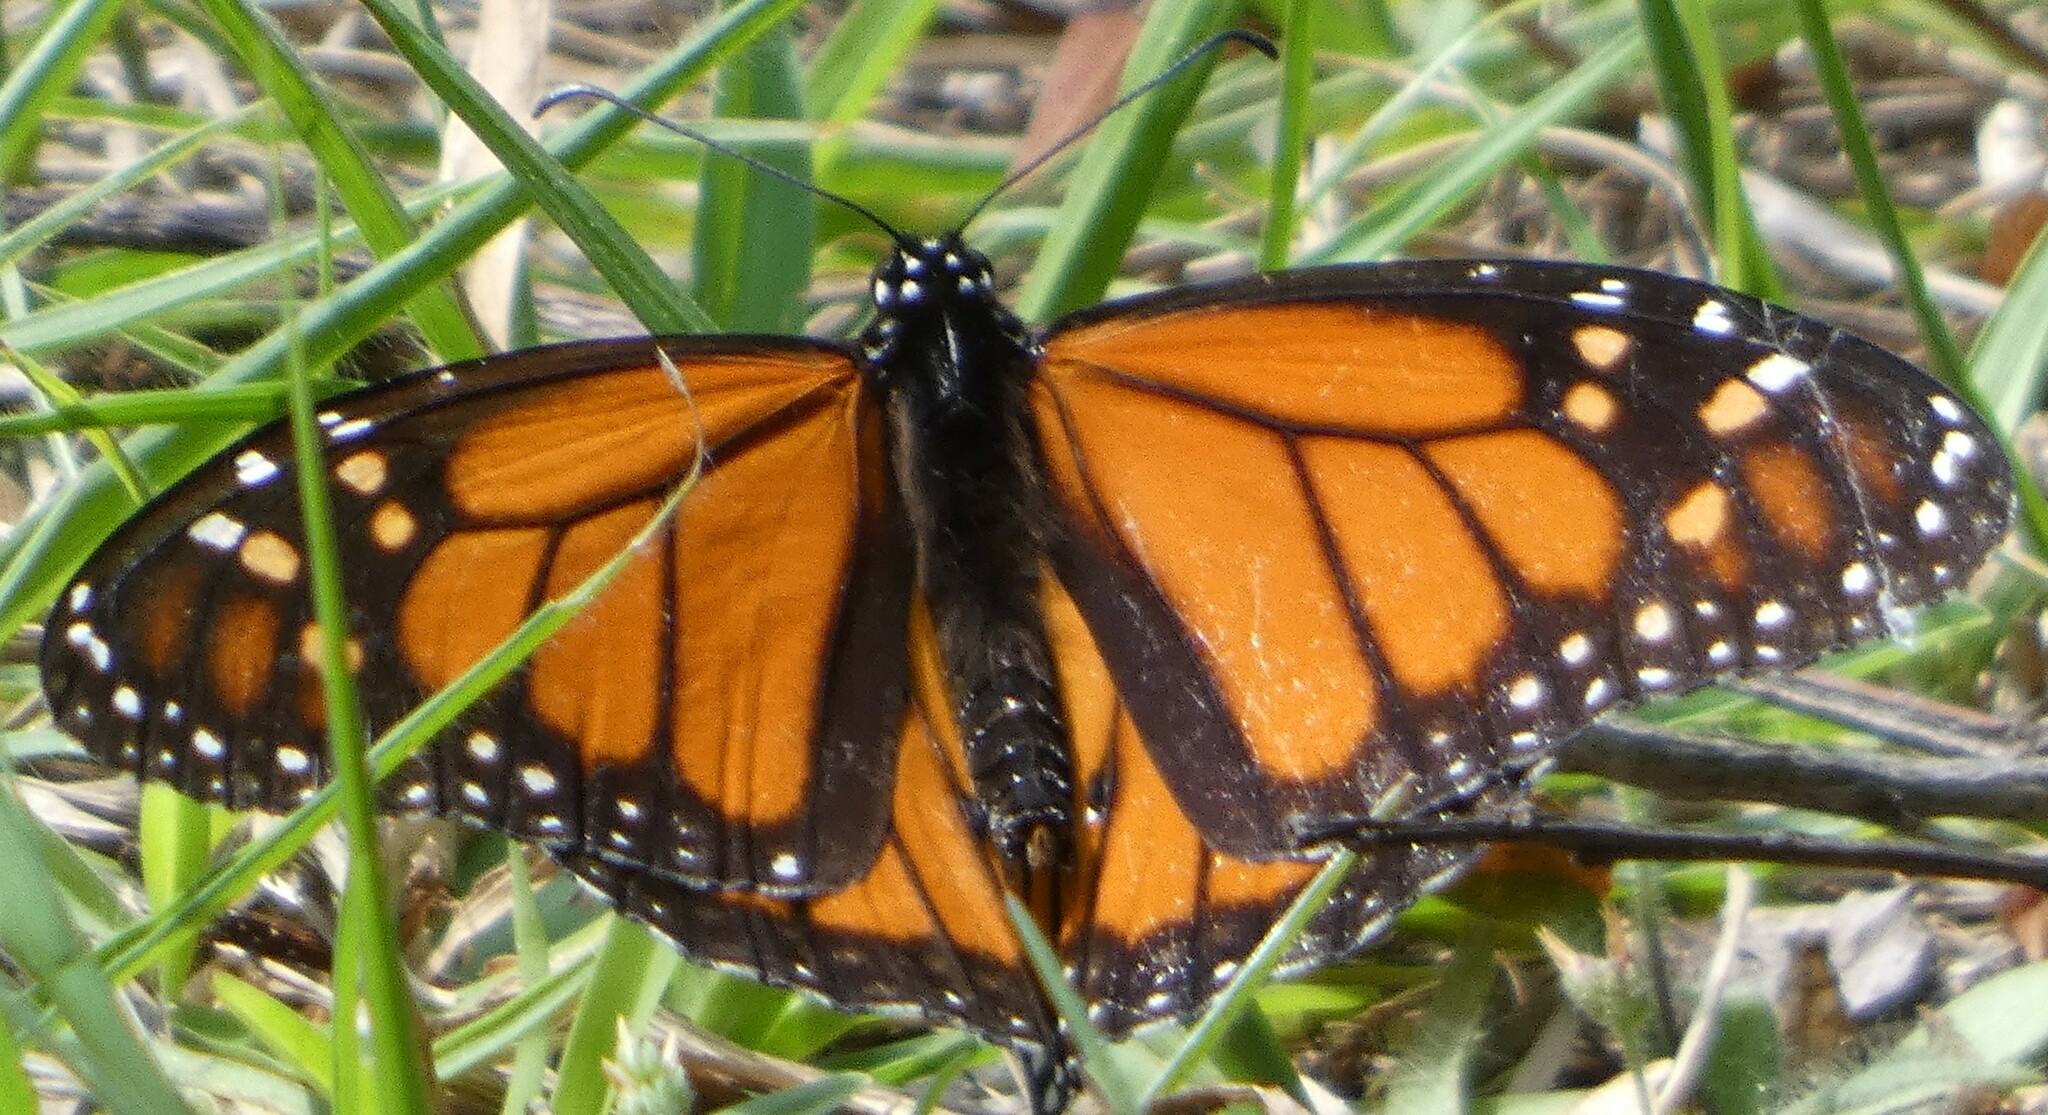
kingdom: Animalia
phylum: Arthropoda
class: Insecta
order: Lepidoptera
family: Nymphalidae
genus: Danaus
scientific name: Danaus plexippus
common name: Monarch
